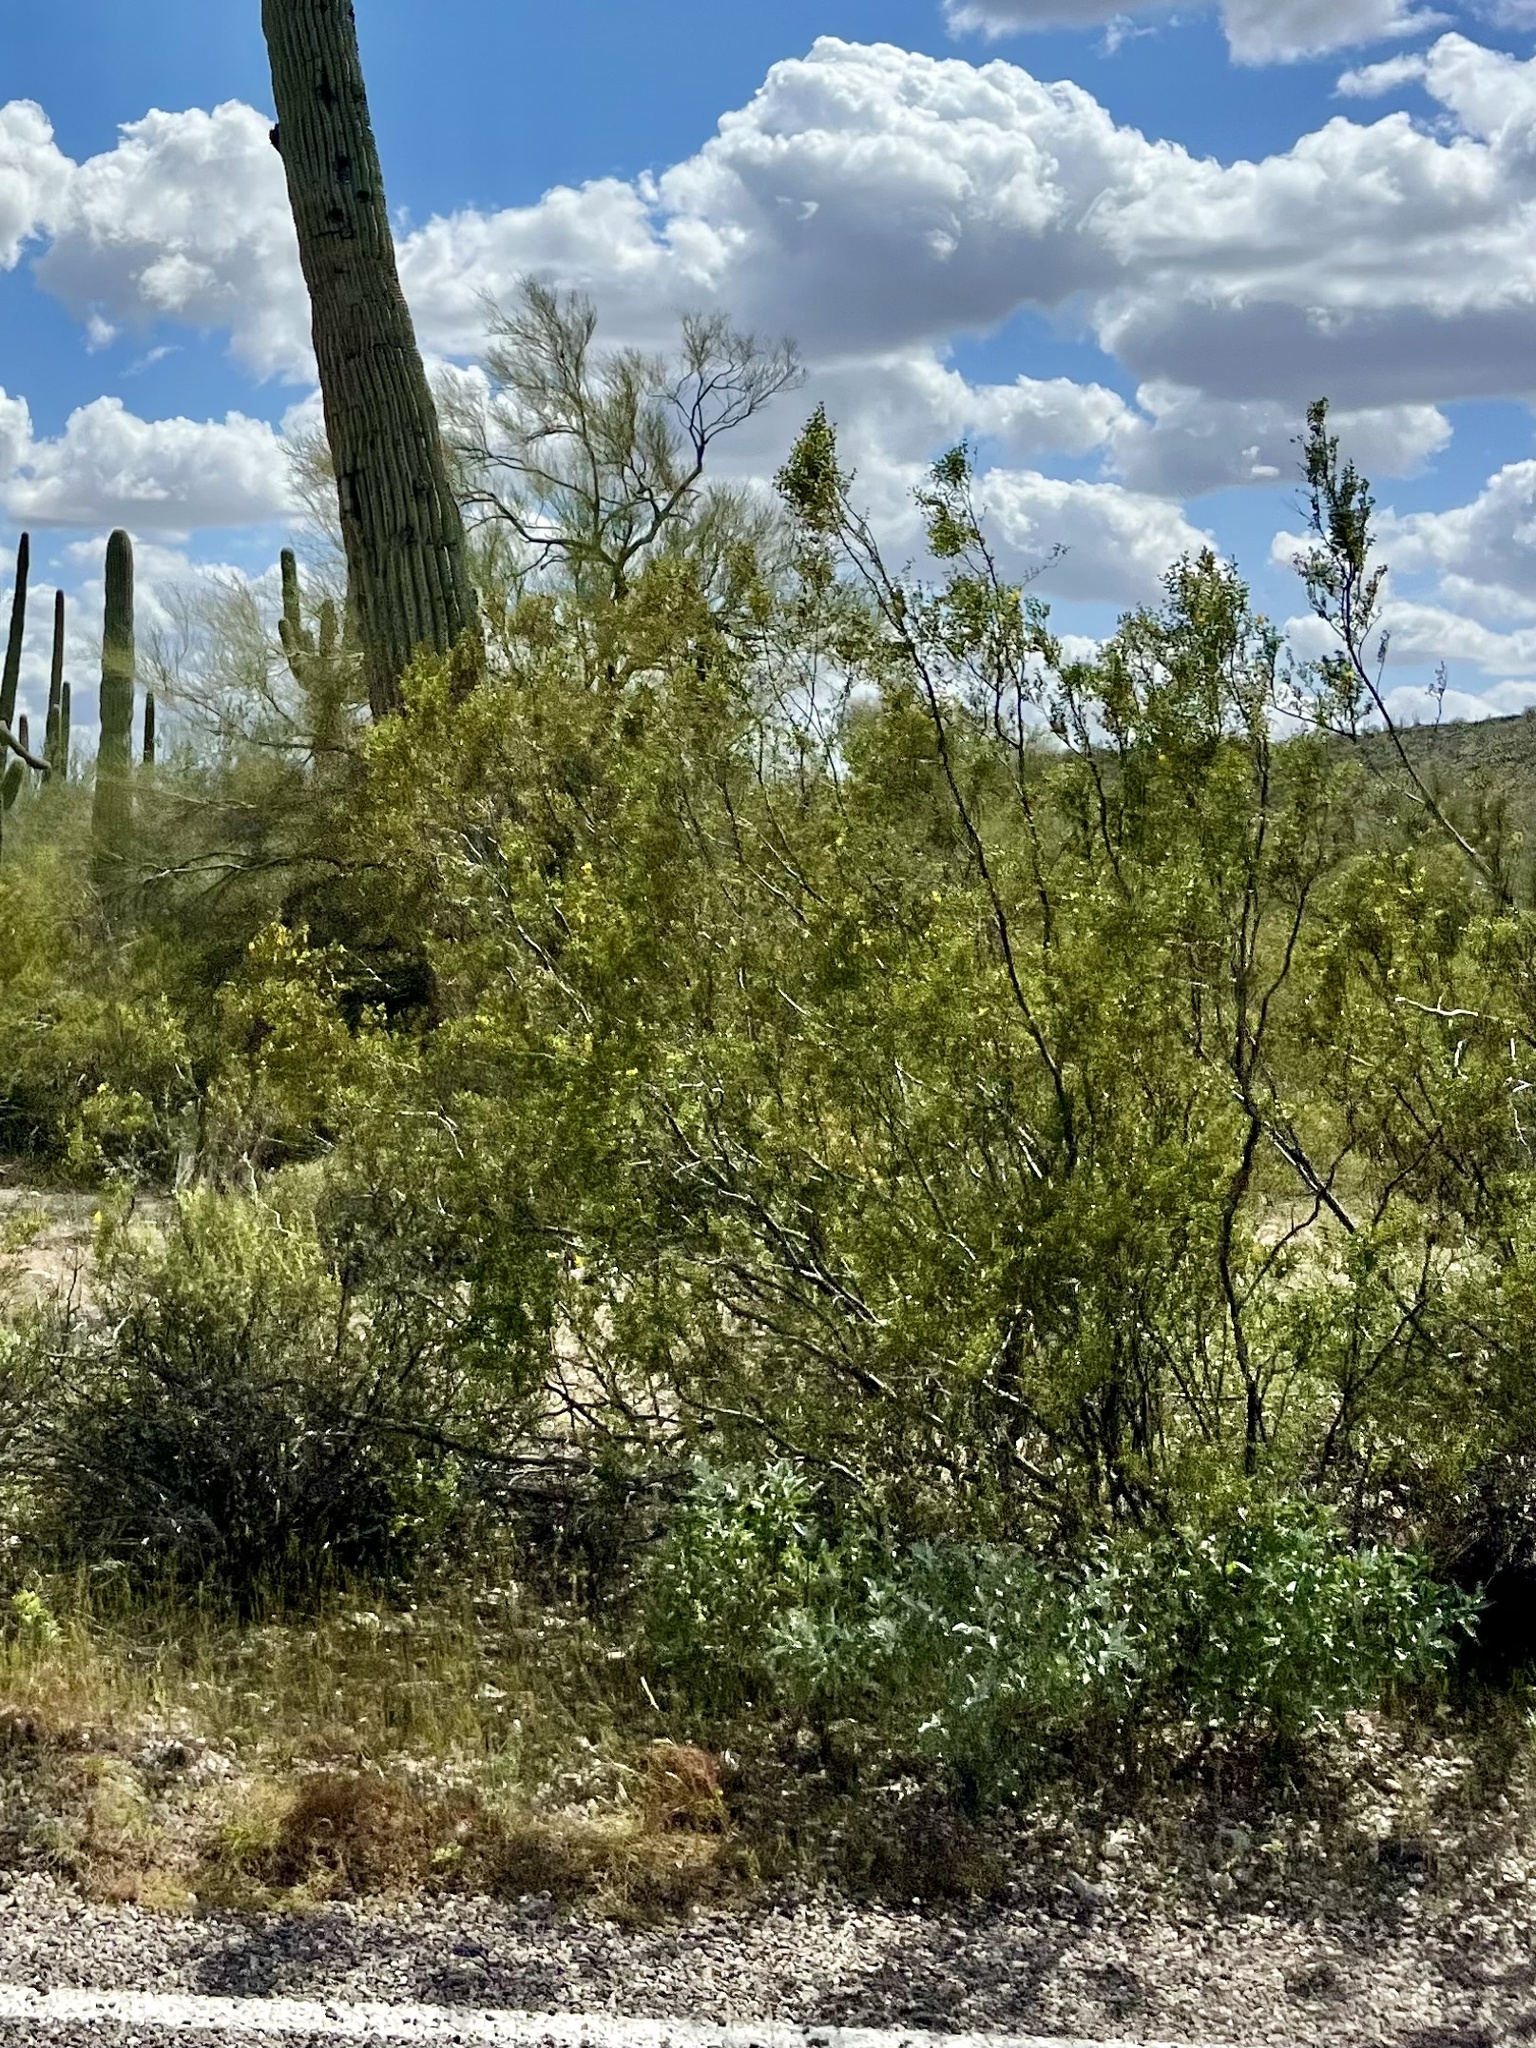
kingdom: Plantae
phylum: Tracheophyta
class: Magnoliopsida
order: Zygophyllales
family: Zygophyllaceae
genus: Larrea
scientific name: Larrea tridentata
